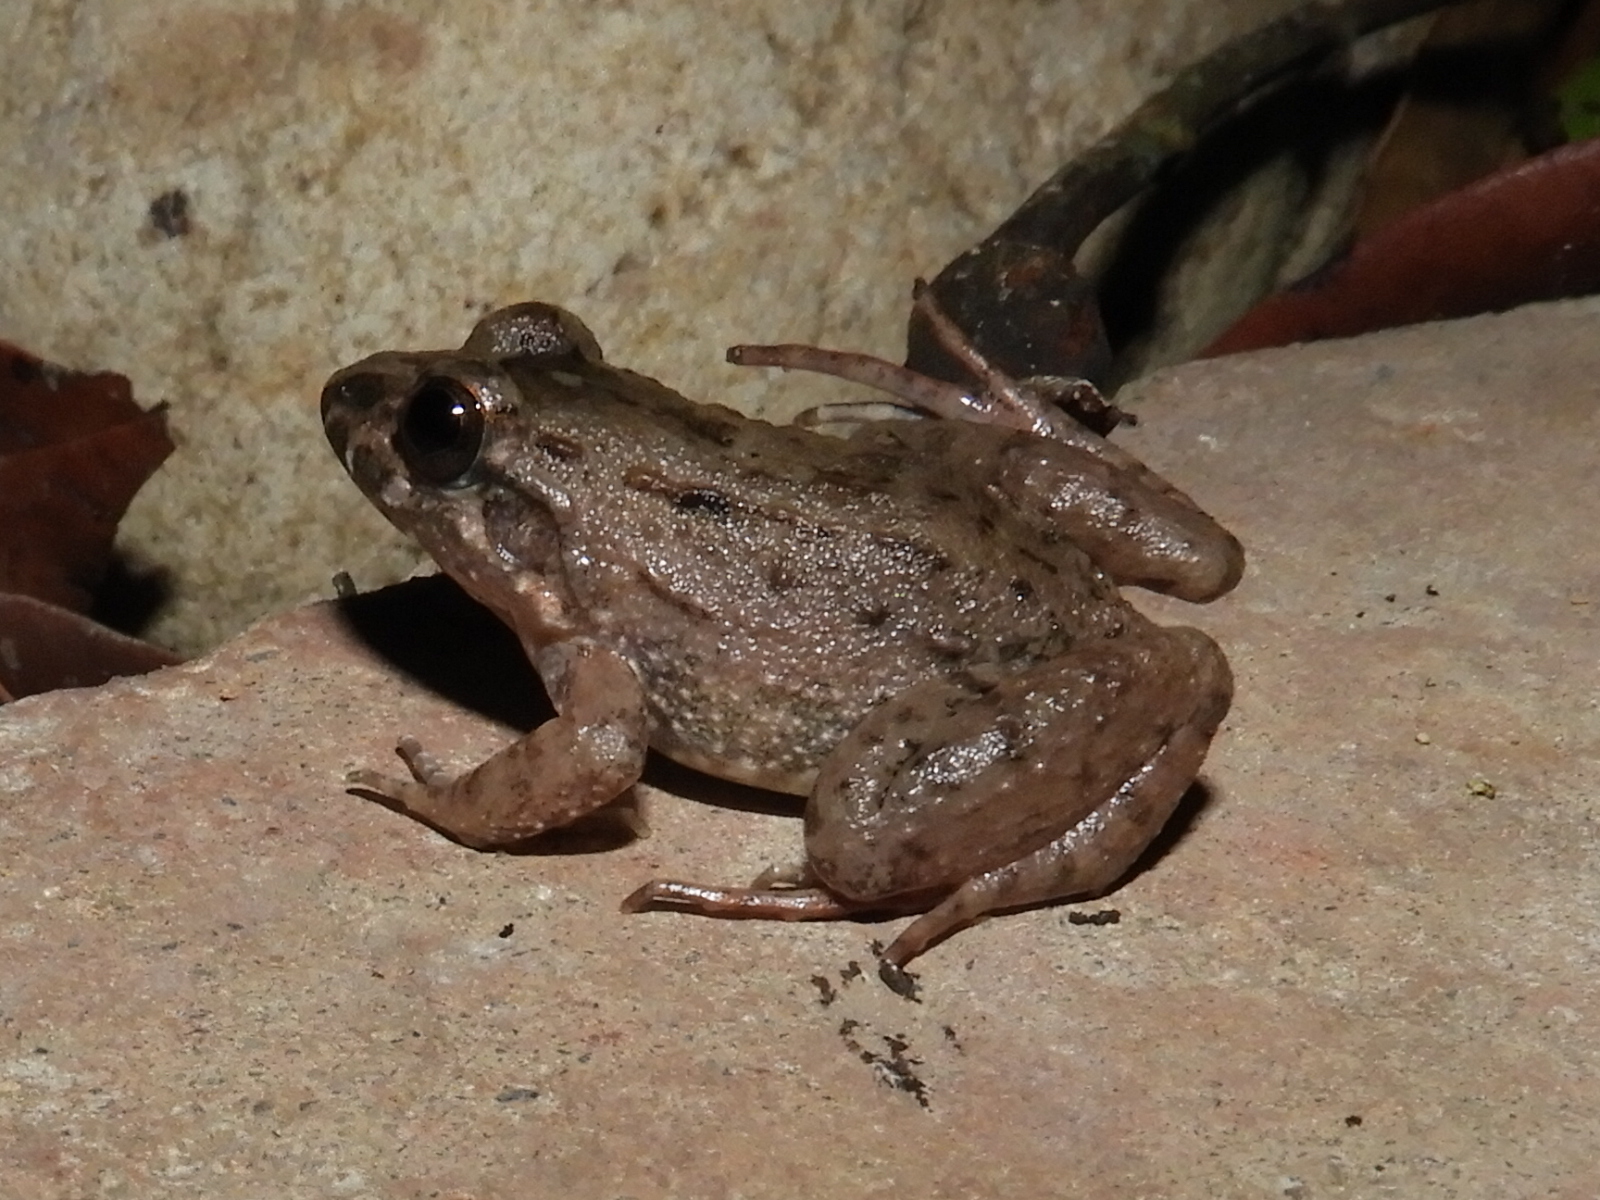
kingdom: Animalia
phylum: Chordata
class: Amphibia
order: Anura
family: Leptodactylidae
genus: Leptodactylus
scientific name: Leptodactylus validus
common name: Smooth-skinned ditch frog
